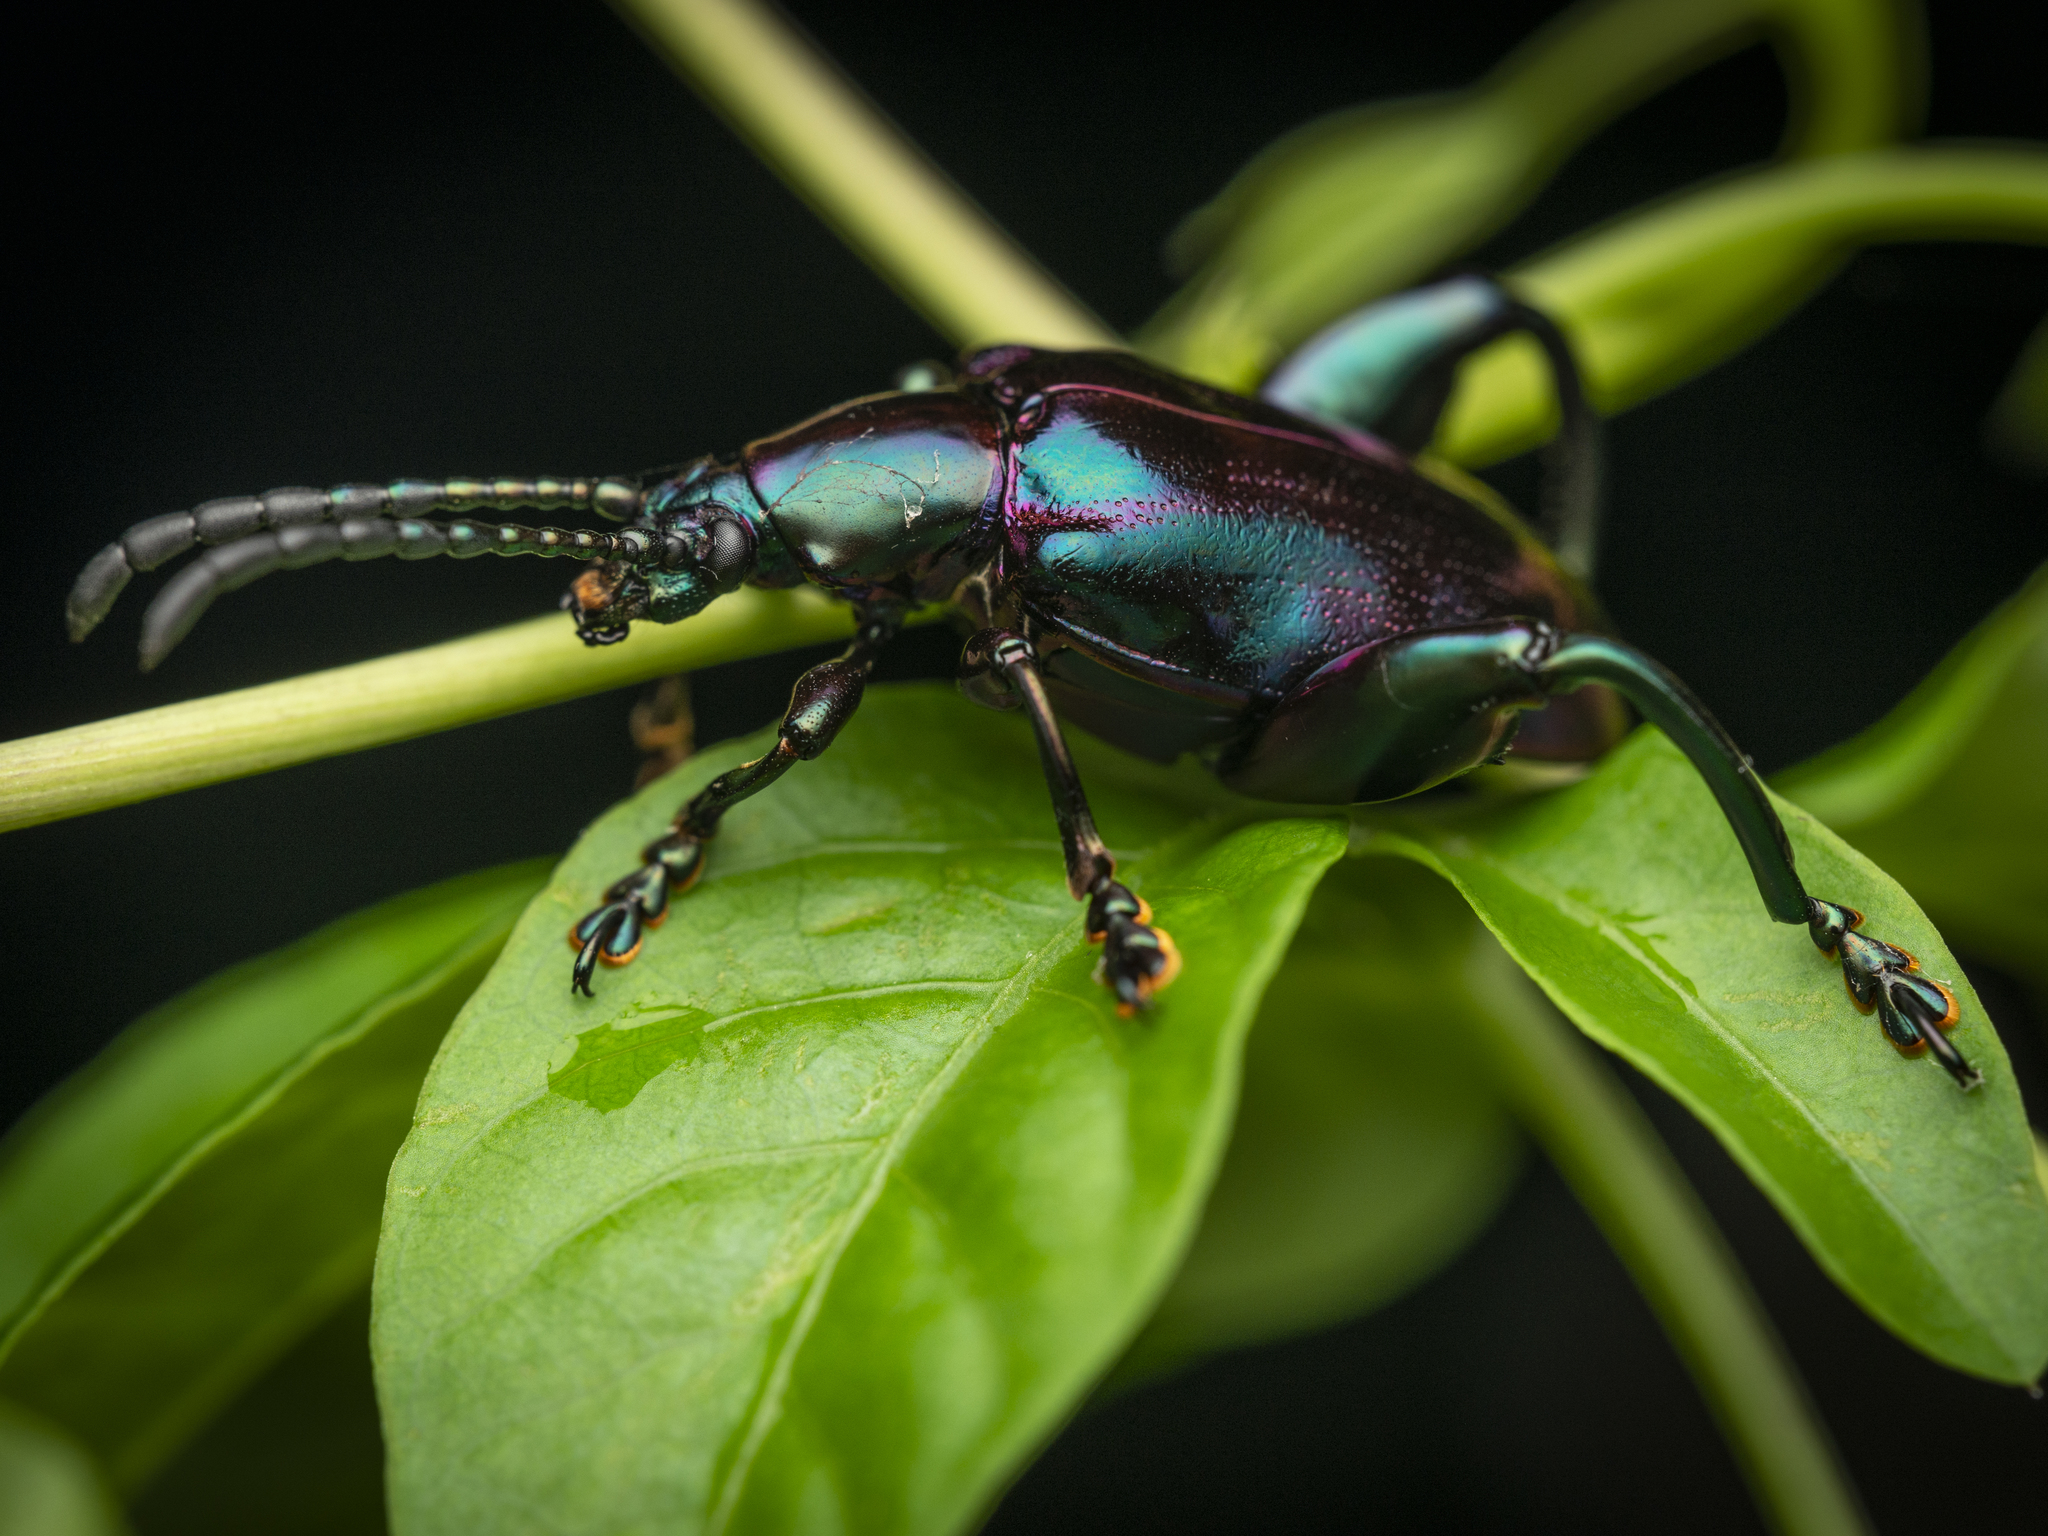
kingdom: Animalia
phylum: Arthropoda
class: Insecta
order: Coleoptera
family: Chrysomelidae
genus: Sagra
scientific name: Sagra femorata
